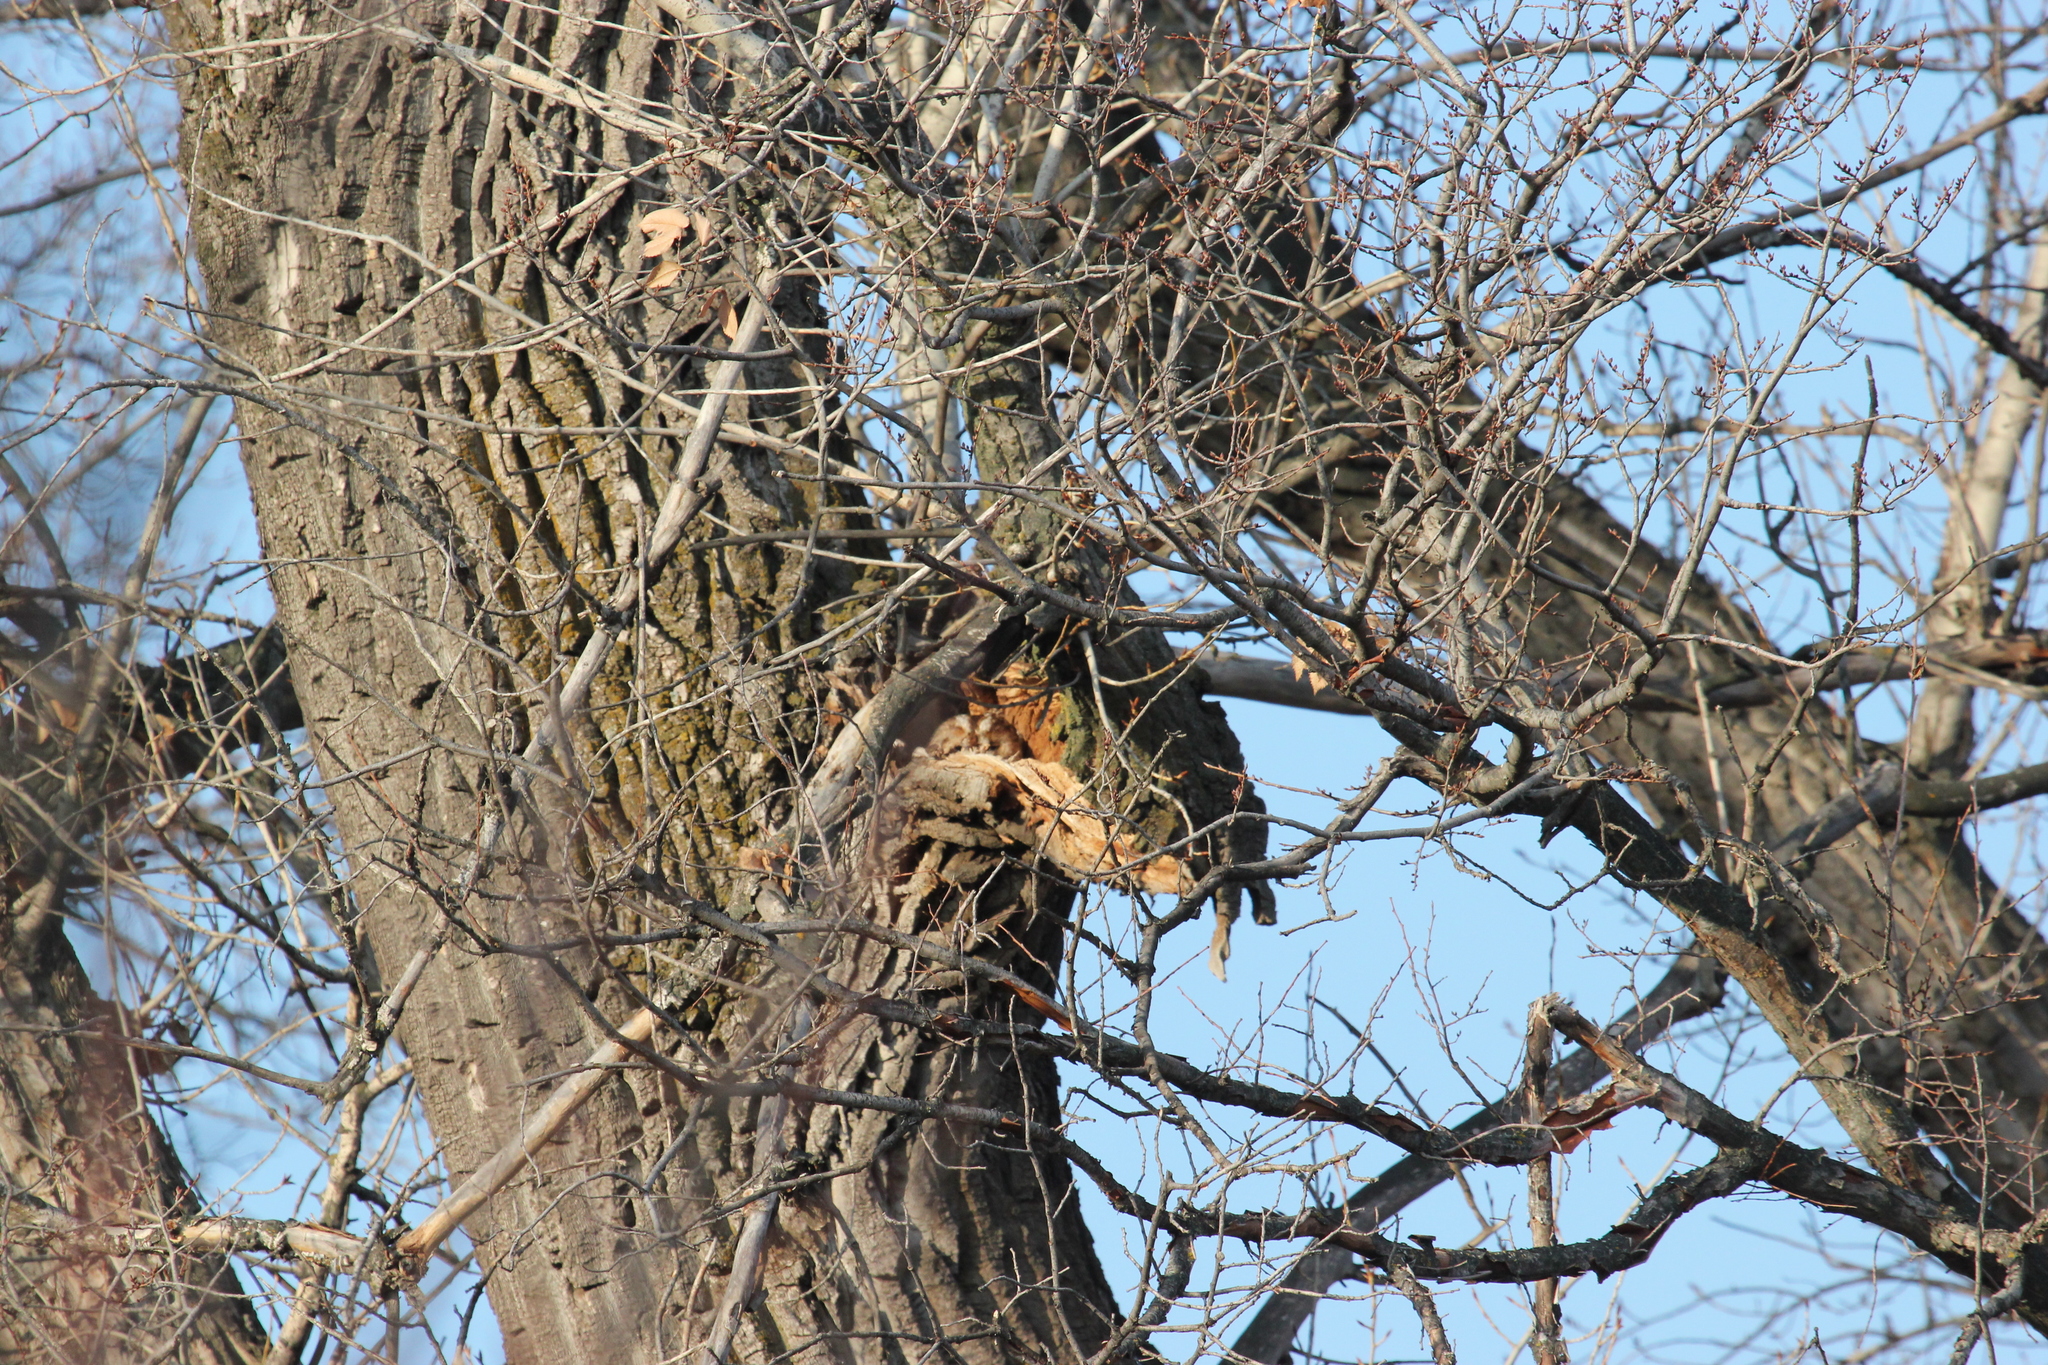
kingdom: Animalia
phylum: Chordata
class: Aves
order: Strigiformes
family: Strigidae
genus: Strix
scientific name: Strix aluco
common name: Tawny owl
